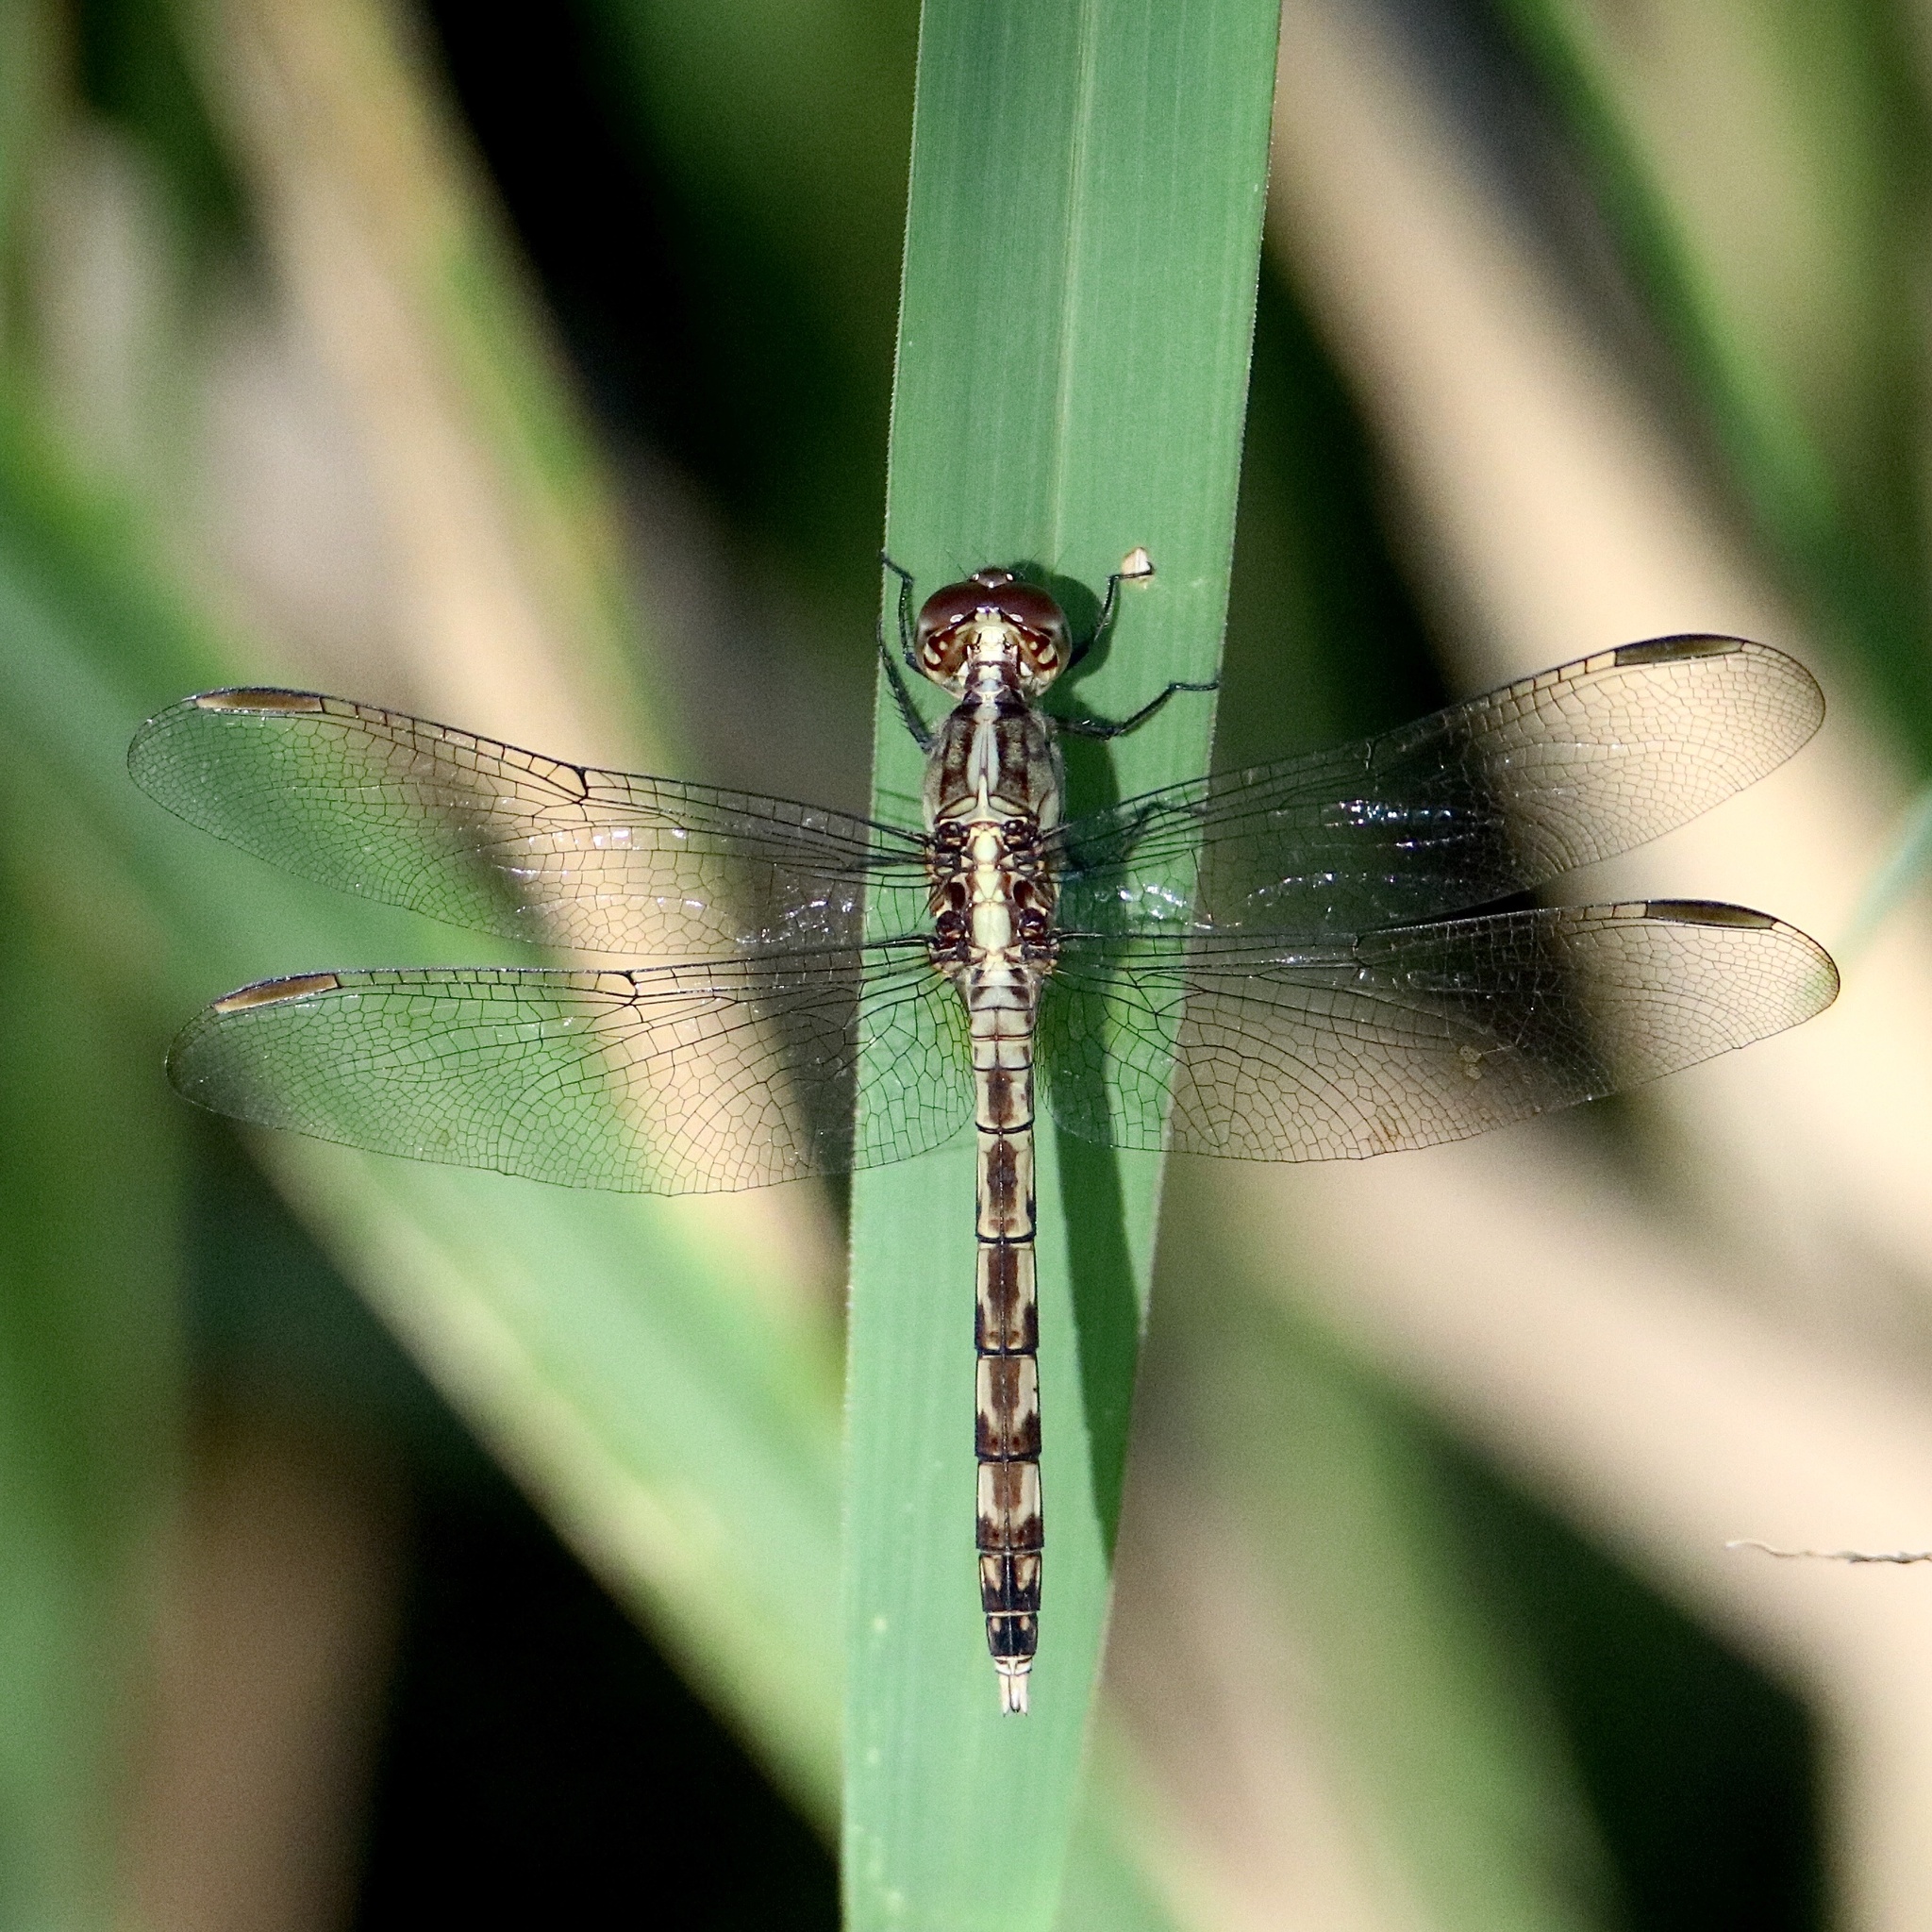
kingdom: Animalia
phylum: Arthropoda
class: Insecta
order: Odonata
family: Libellulidae
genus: Erythrodiplax
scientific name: Erythrodiplax umbrata
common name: Band-winged dragonlet
